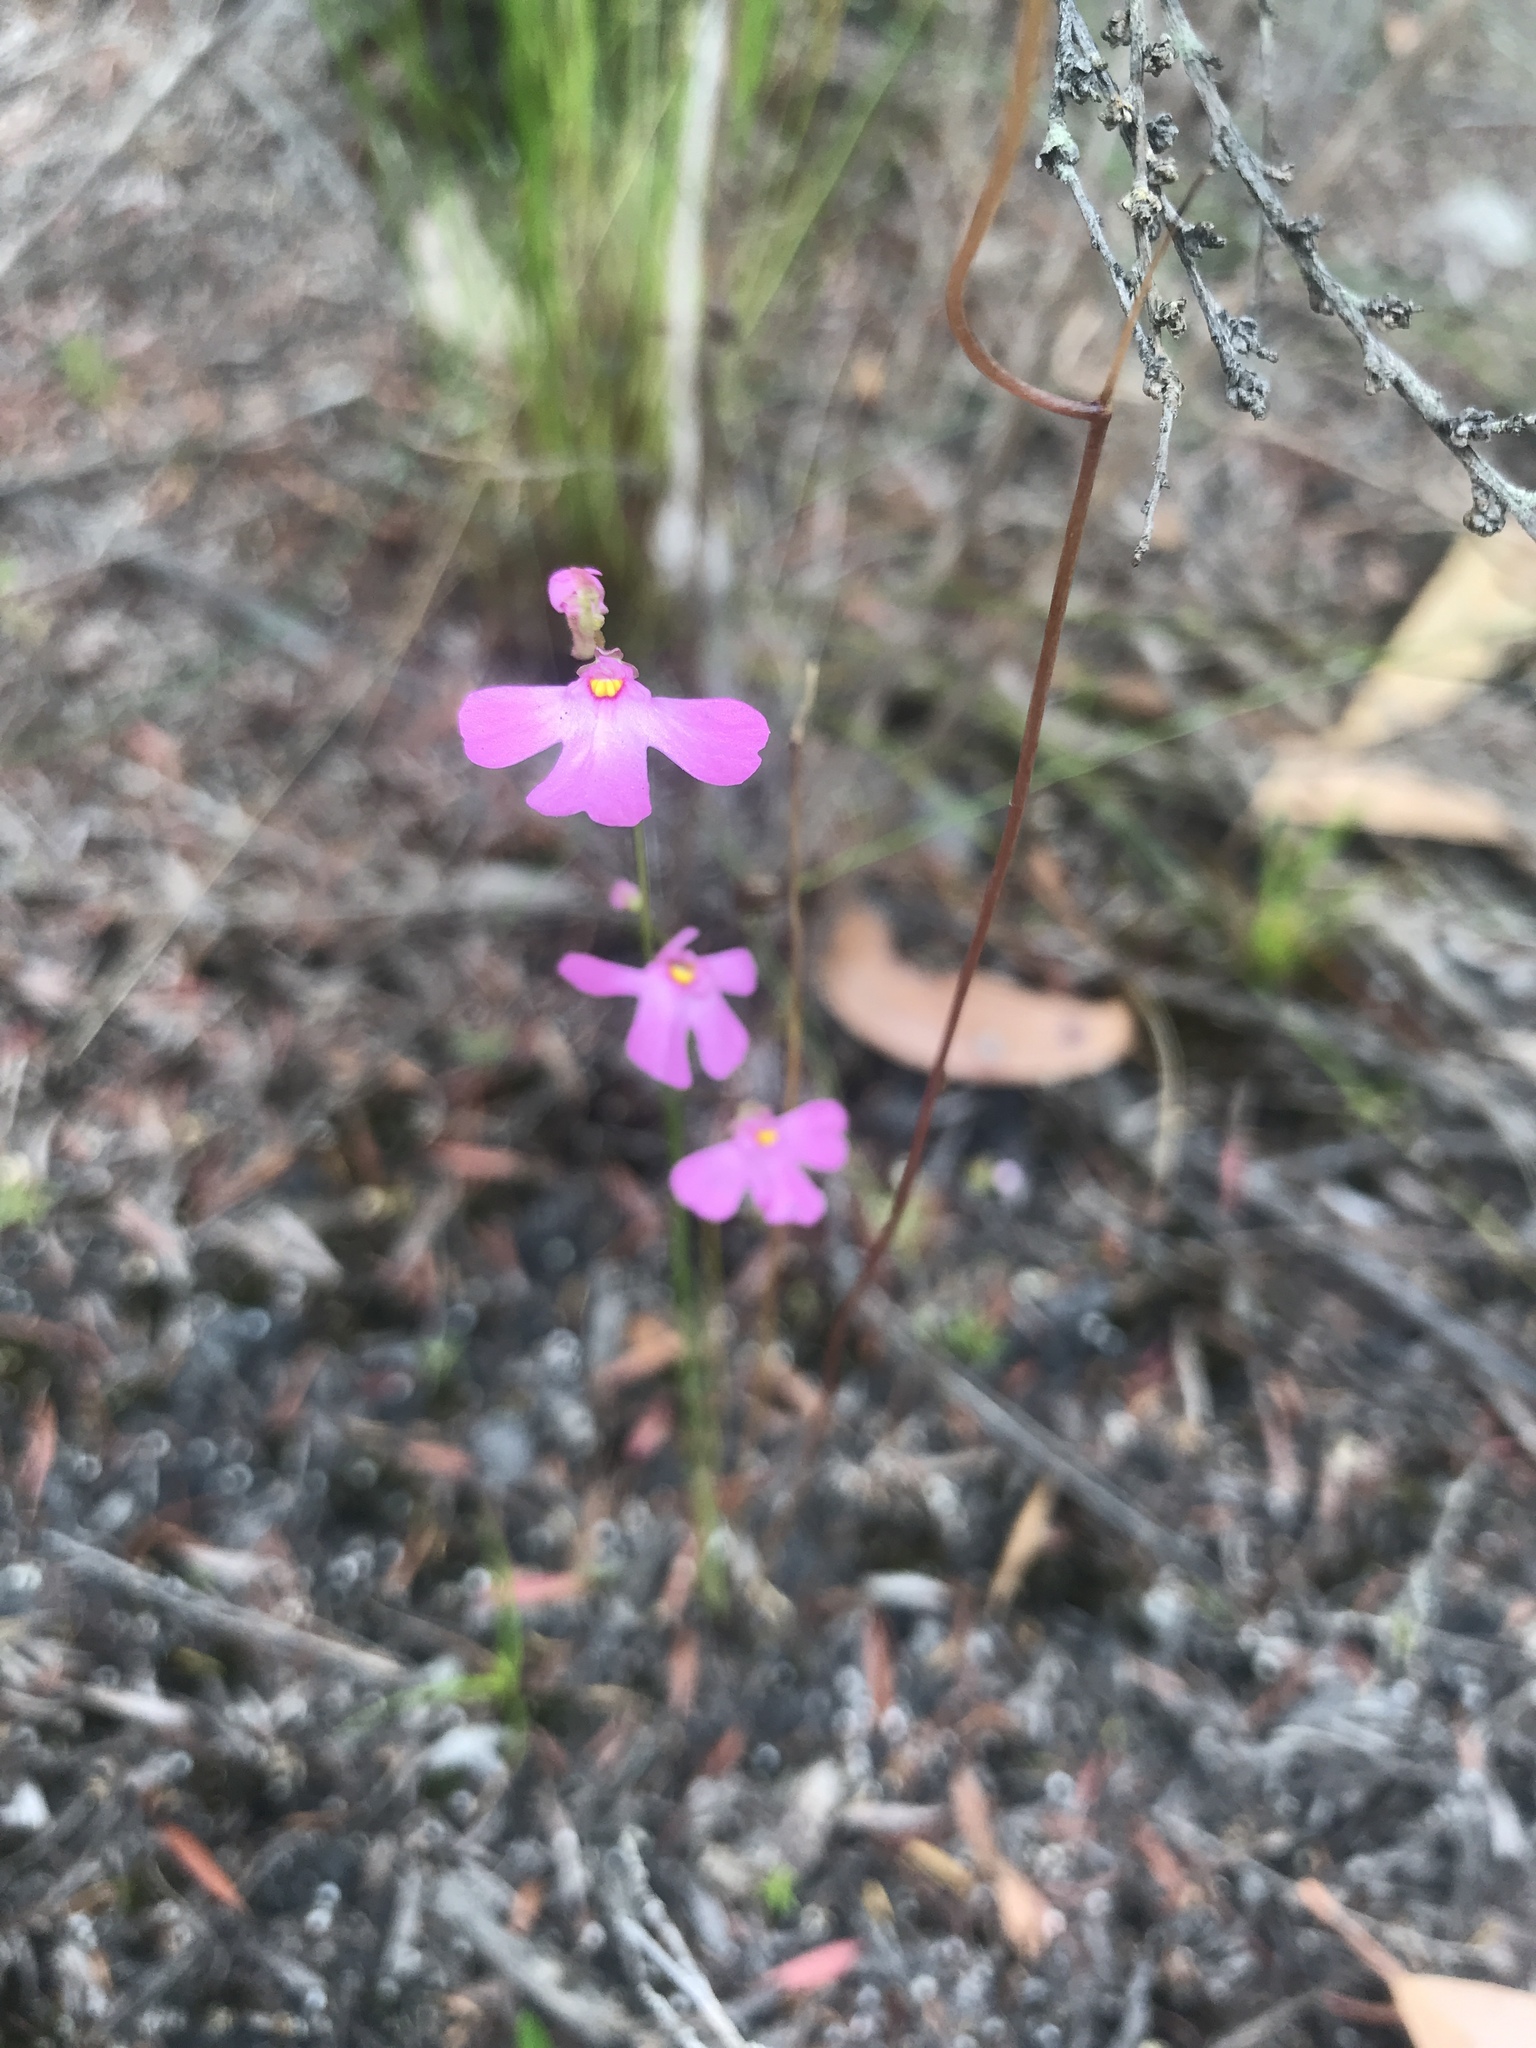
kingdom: Plantae
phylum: Tracheophyta
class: Magnoliopsida
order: Lamiales
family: Lentibulariaceae
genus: Utricularia
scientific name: Utricularia multifida
